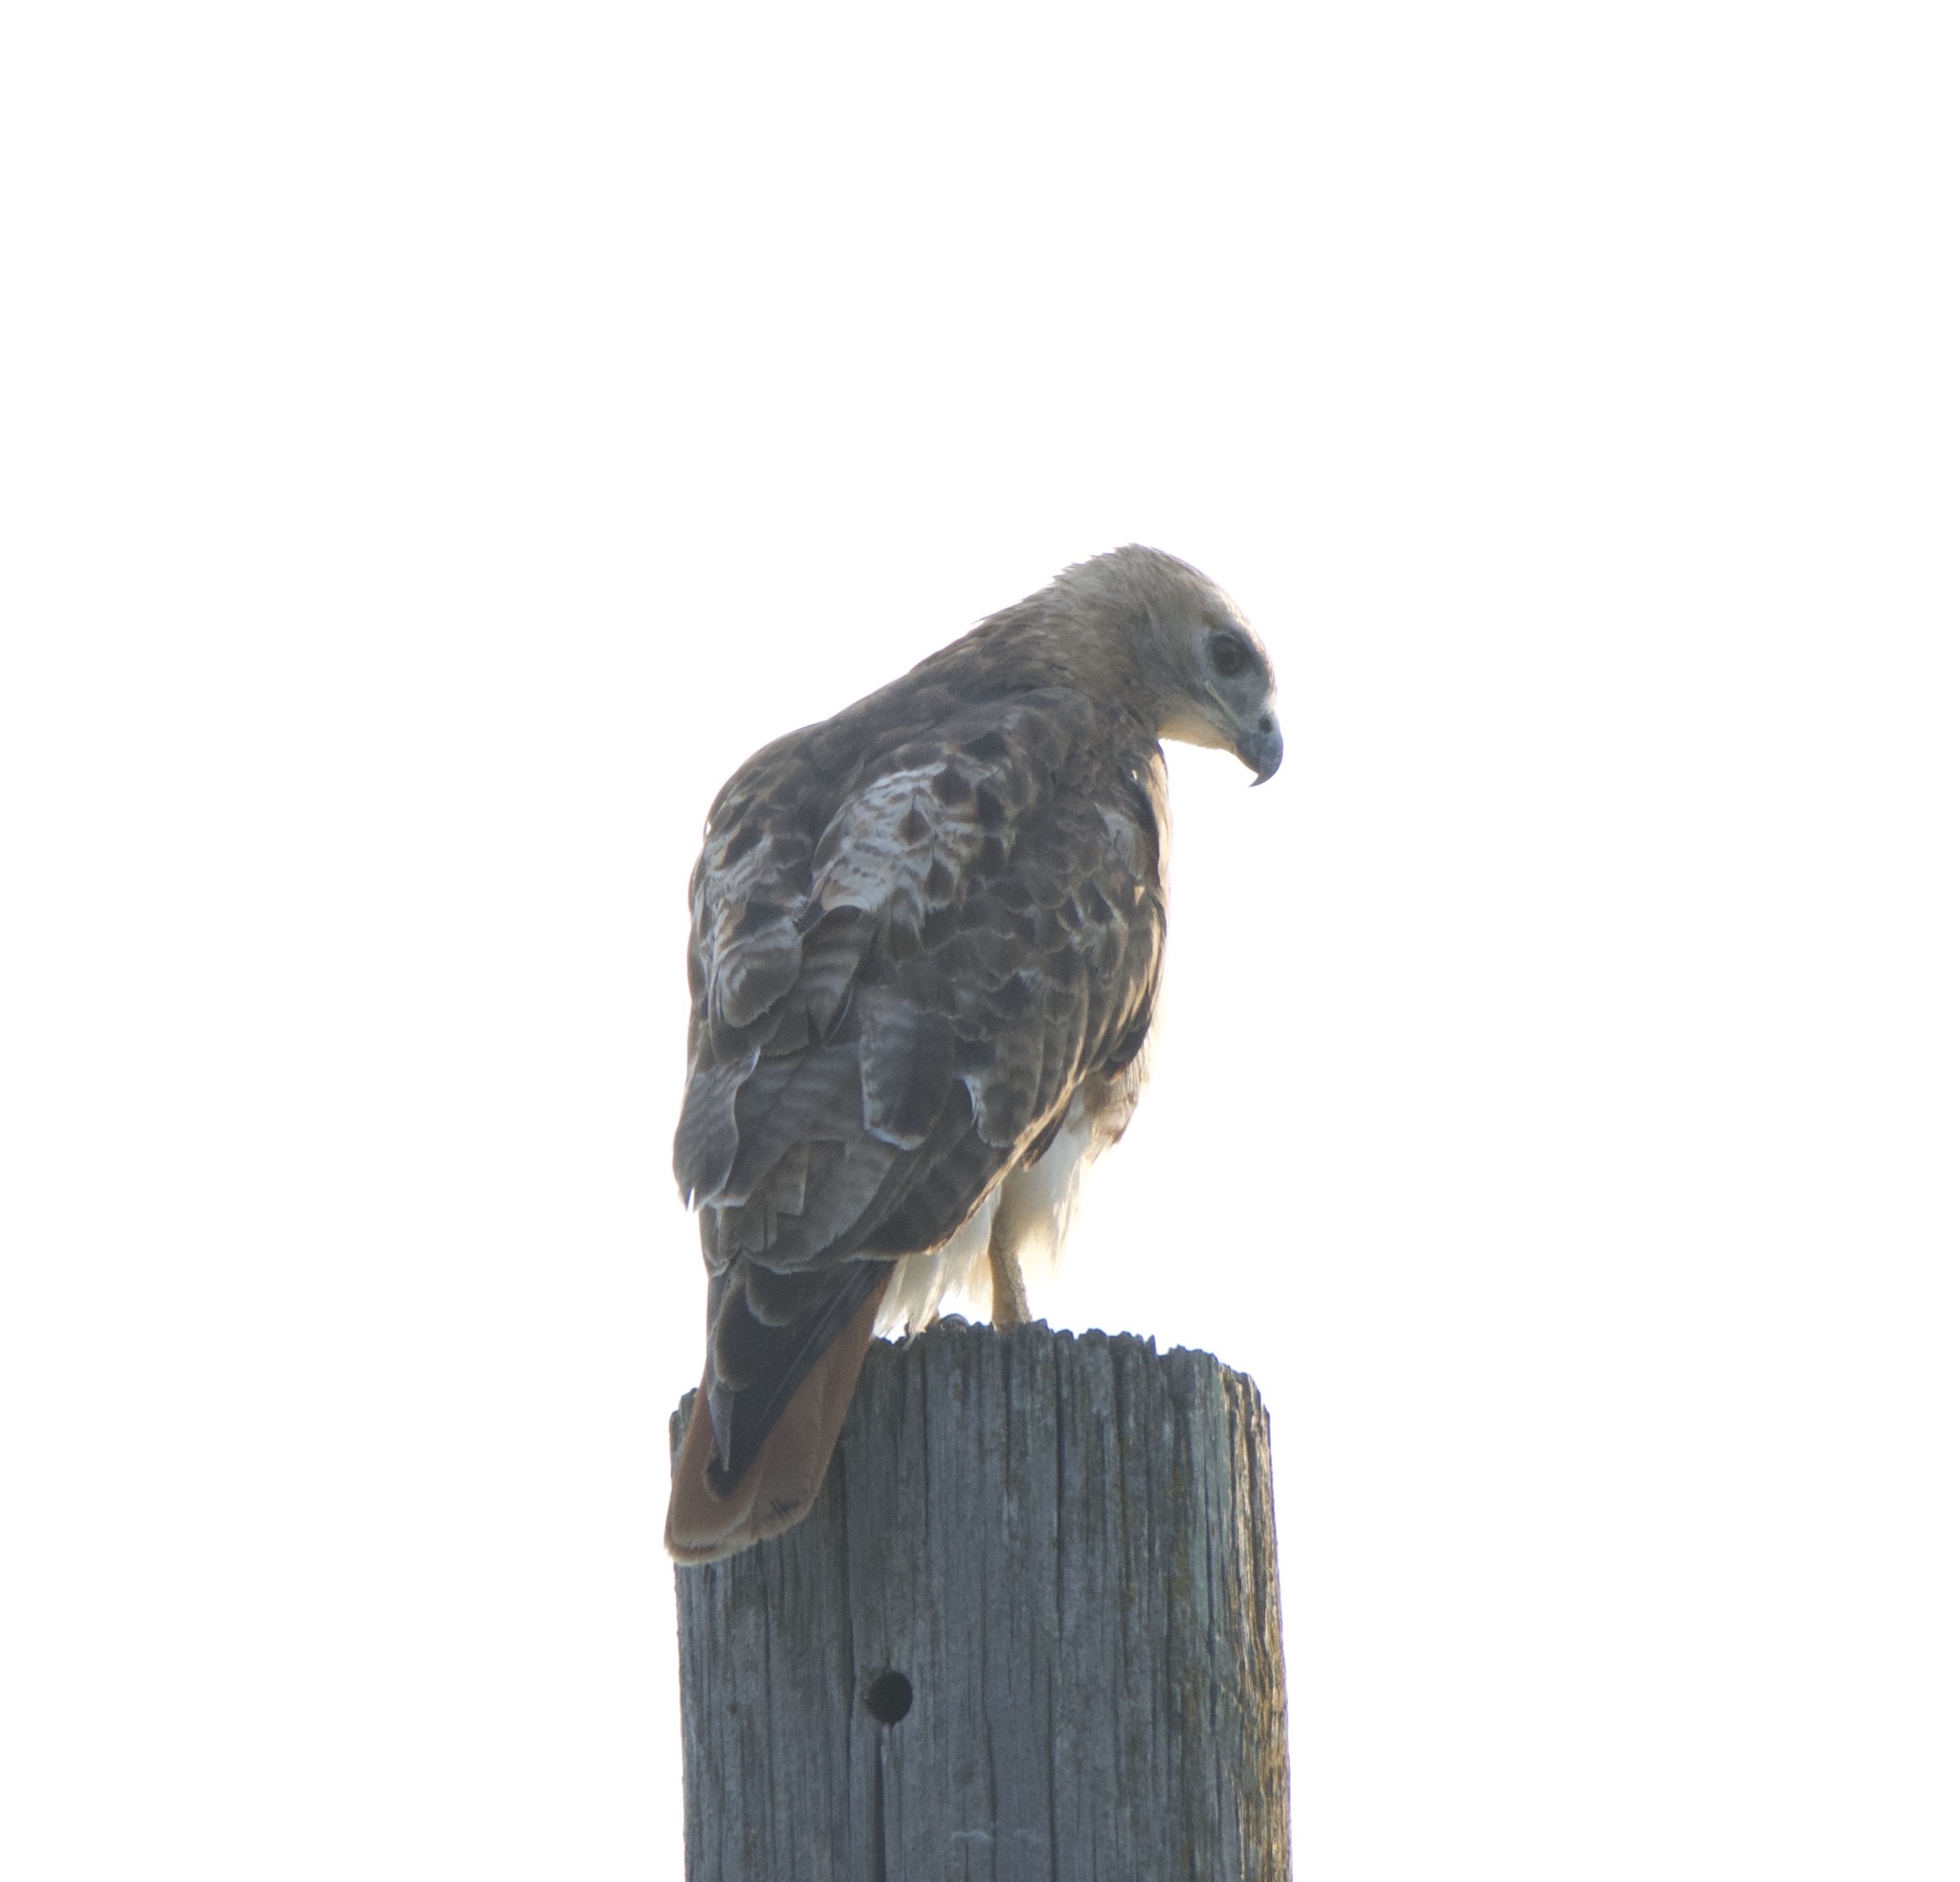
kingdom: Animalia
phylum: Chordata
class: Aves
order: Accipitriformes
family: Accipitridae
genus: Buteo
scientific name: Buteo jamaicensis
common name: Red-tailed hawk
